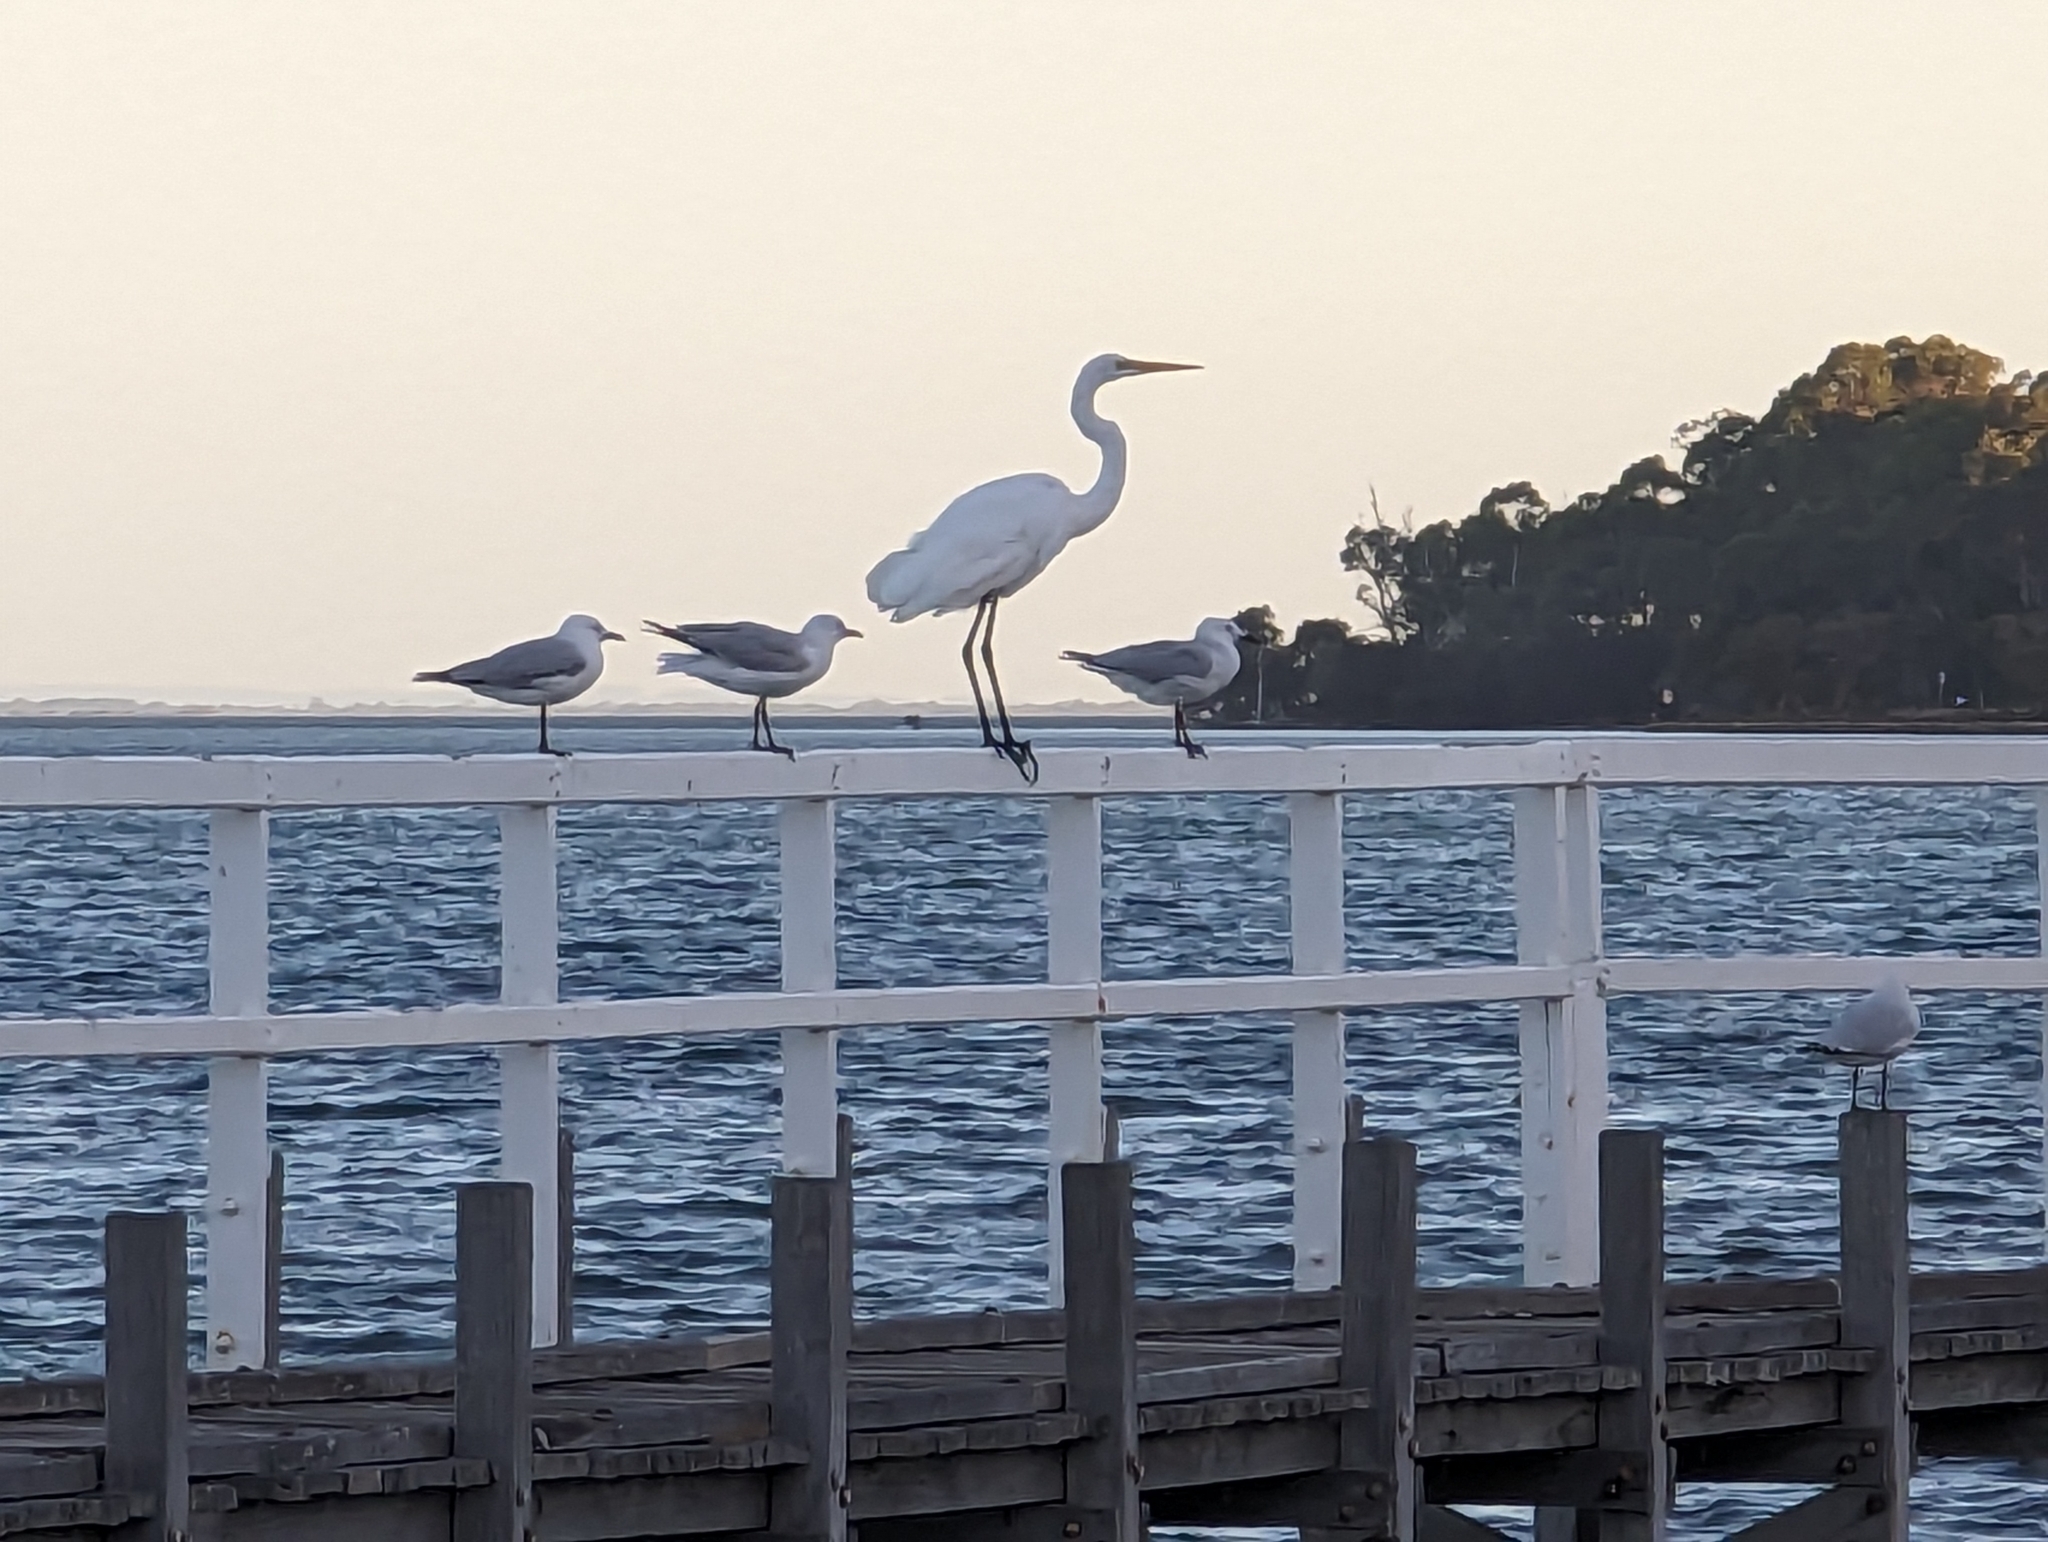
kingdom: Animalia
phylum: Chordata
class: Aves
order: Pelecaniformes
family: Ardeidae
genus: Ardea
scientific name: Ardea alba
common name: Great egret
